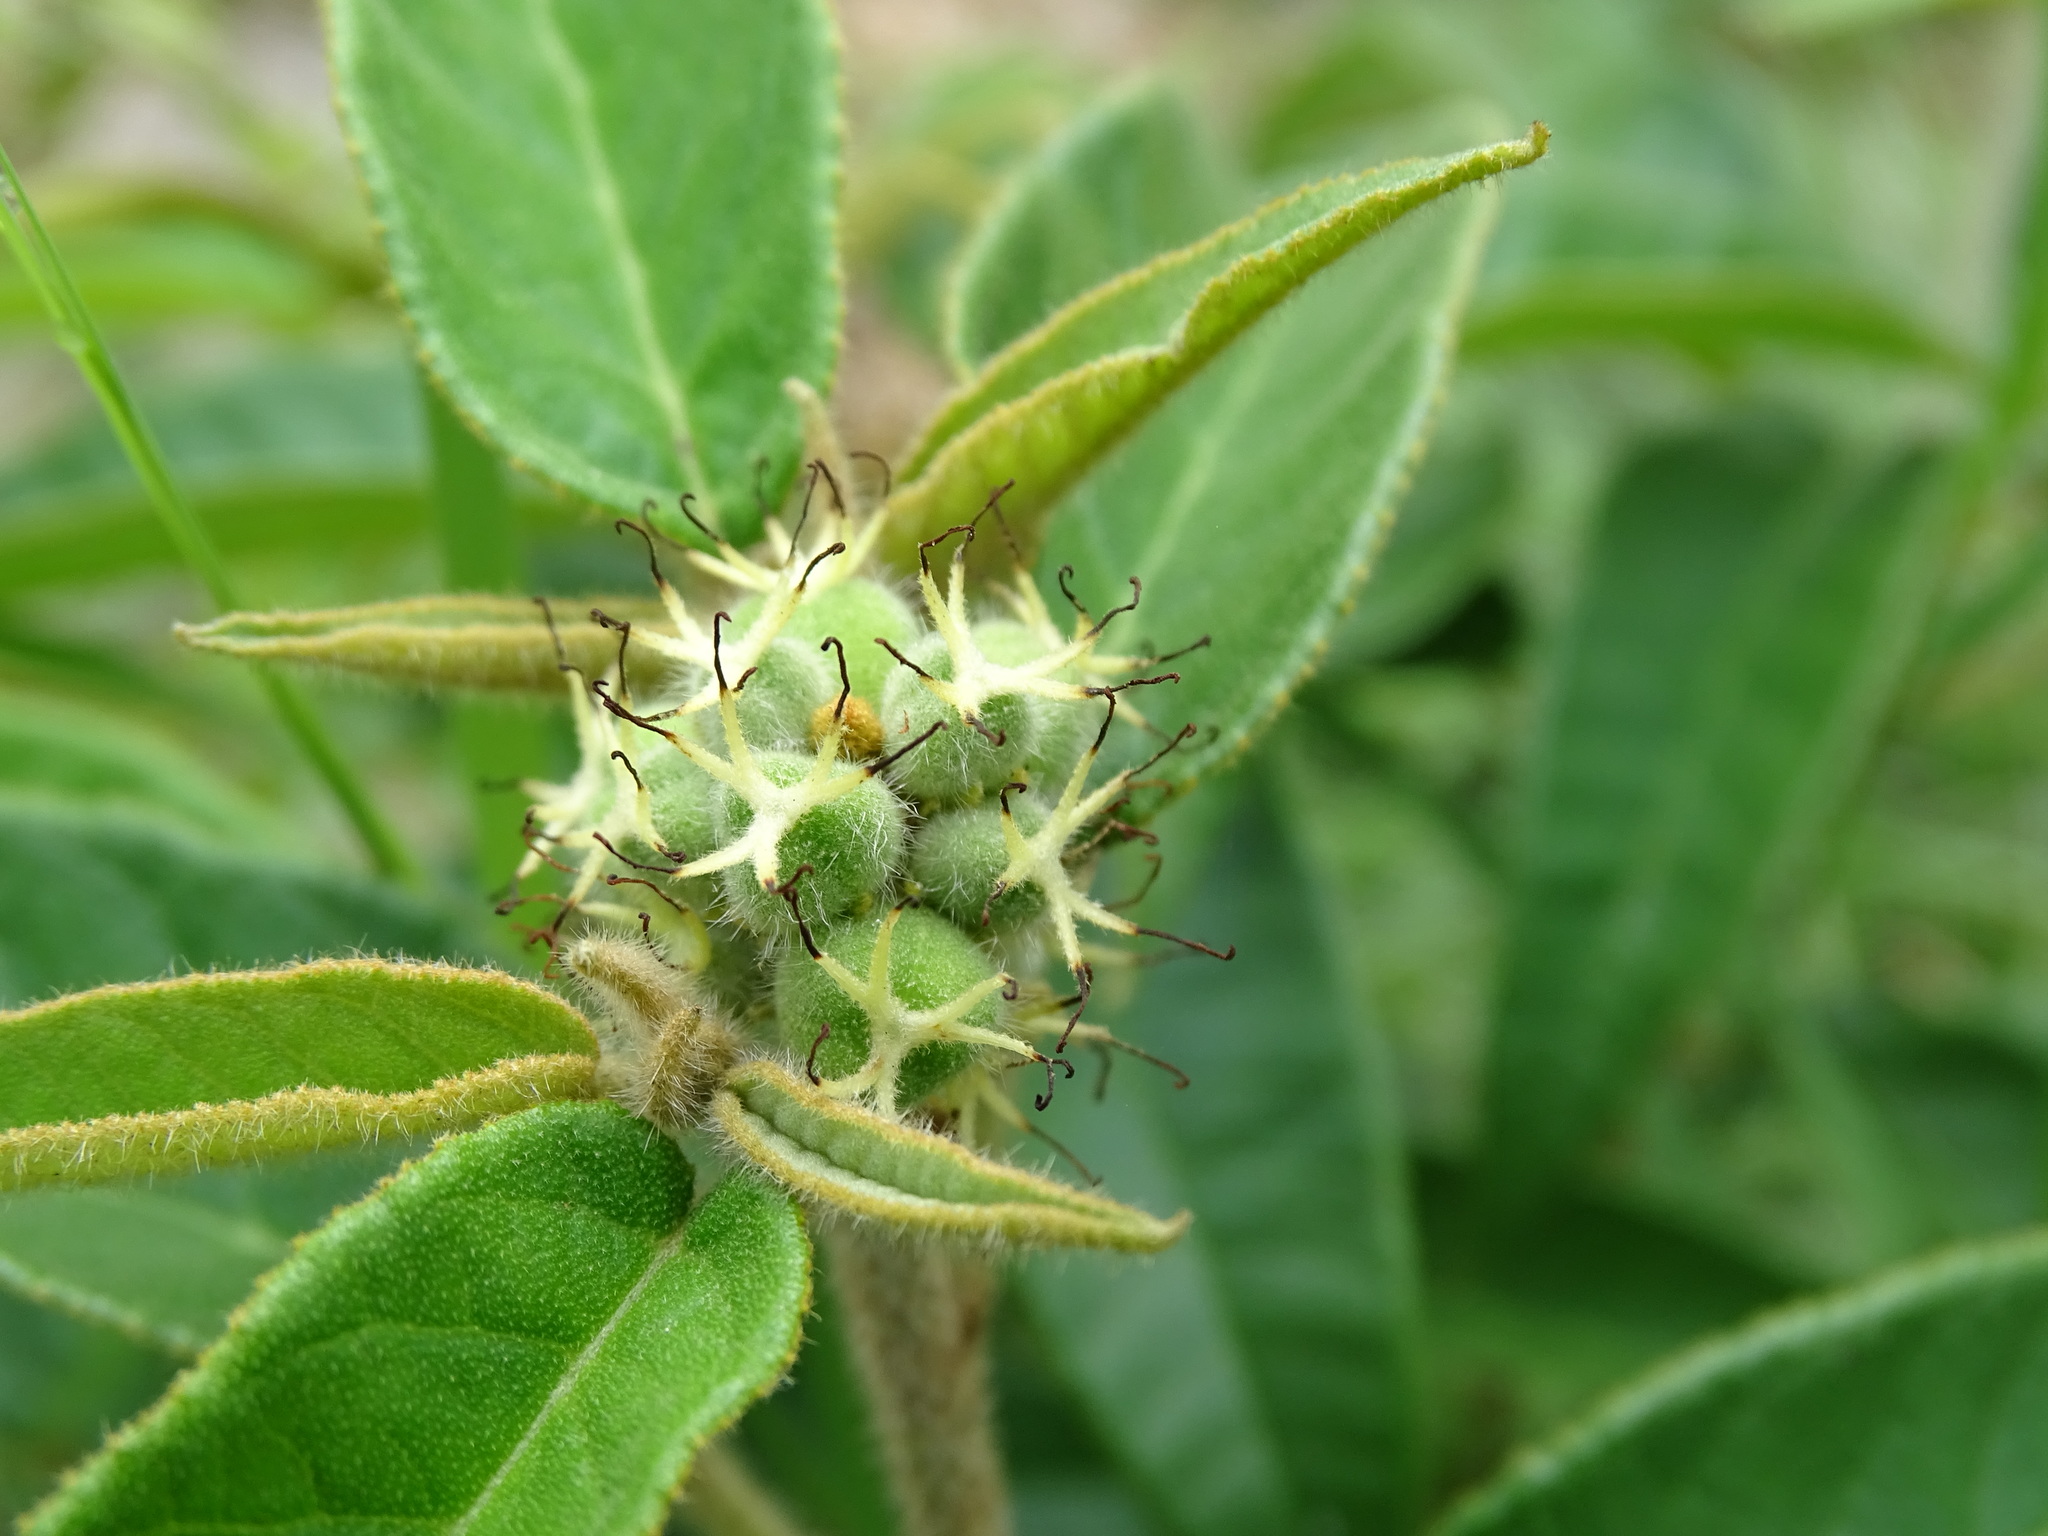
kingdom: Plantae
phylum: Tracheophyta
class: Magnoliopsida
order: Malpighiales
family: Euphorbiaceae
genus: Croton
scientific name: Croton cortesianus
